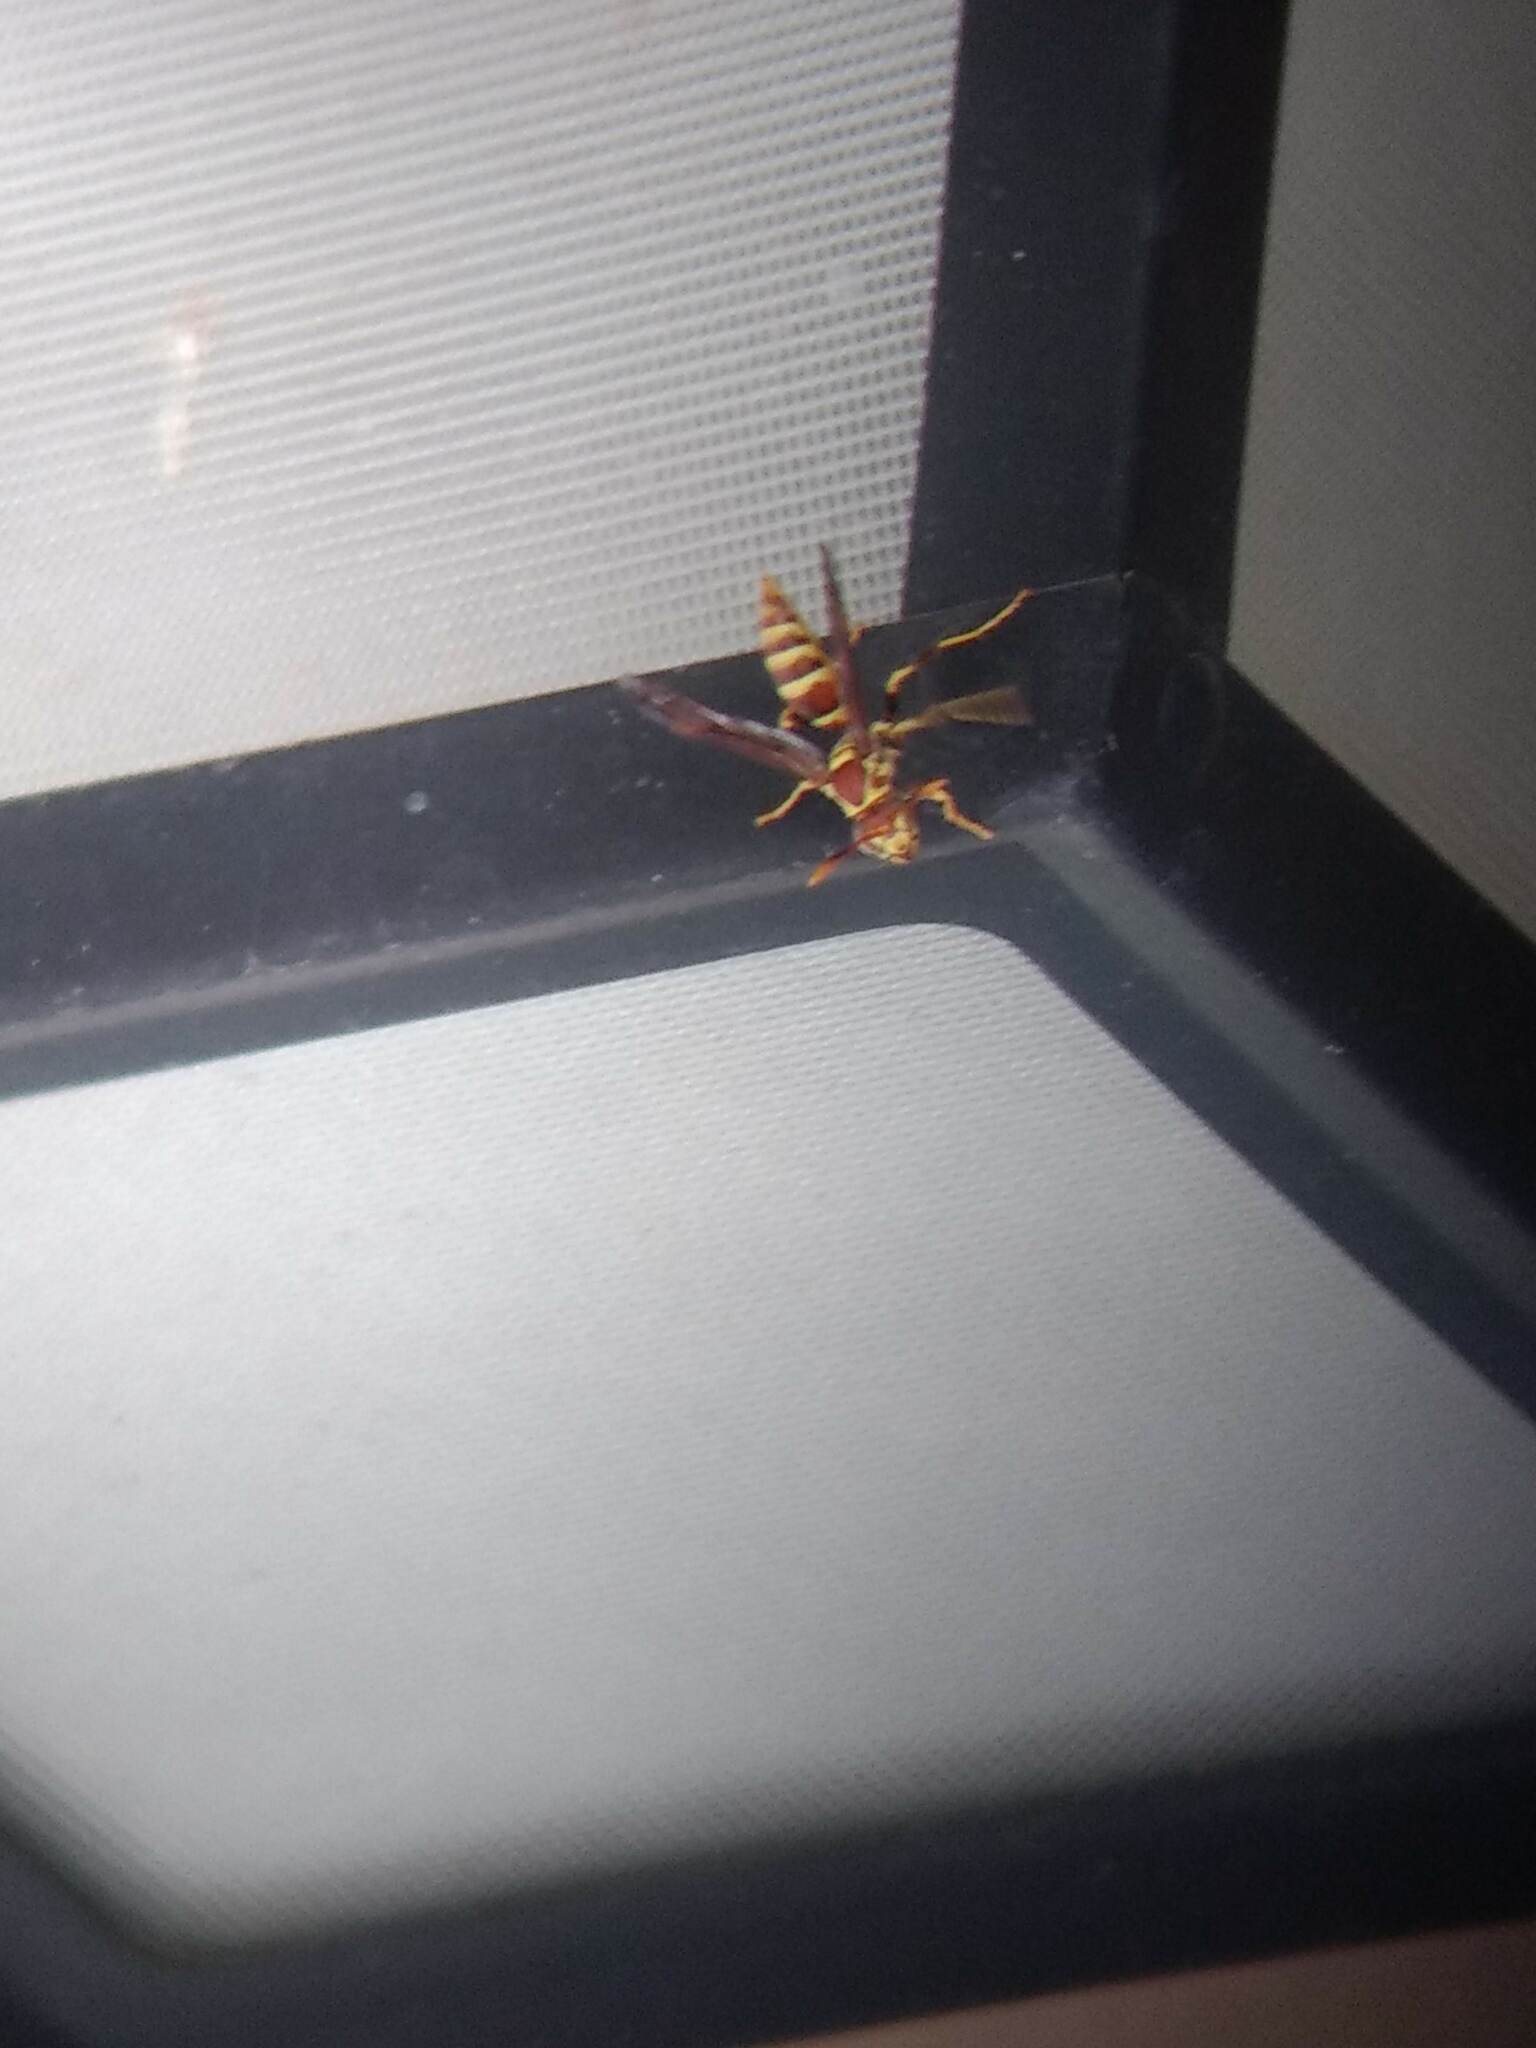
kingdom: Animalia
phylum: Arthropoda
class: Insecta
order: Hymenoptera
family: Eumenidae
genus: Polistes
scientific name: Polistes exclamans
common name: Paper wasp
